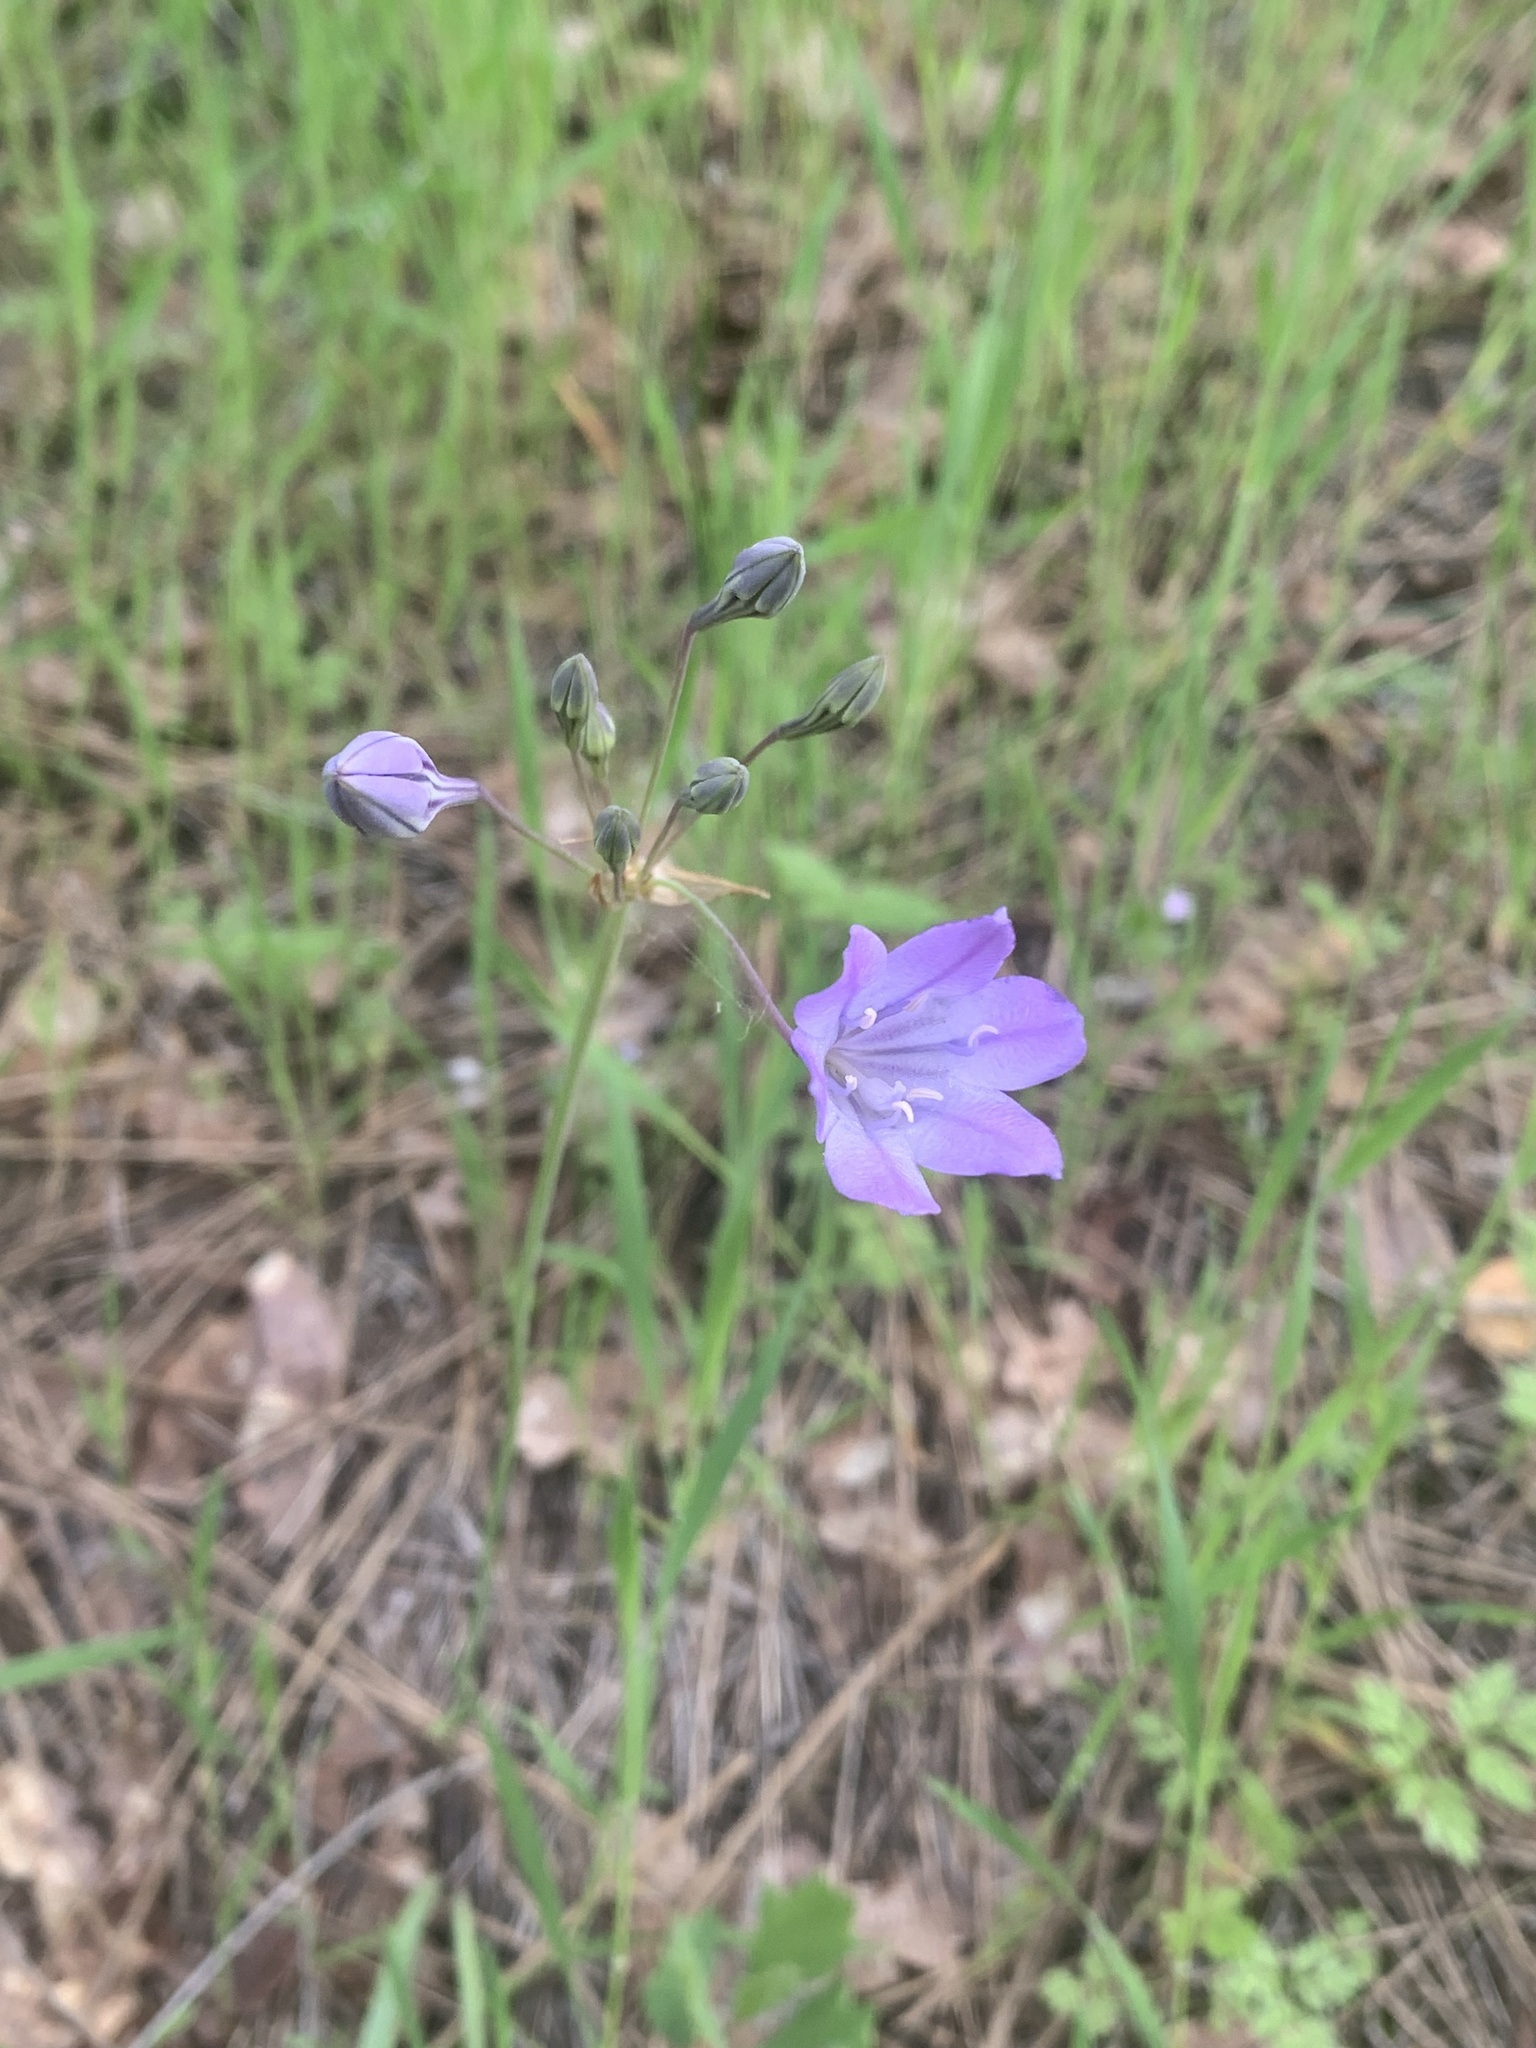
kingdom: Plantae
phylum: Tracheophyta
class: Liliopsida
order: Asparagales
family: Asparagaceae
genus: Triteleia
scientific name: Triteleia laxa
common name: Triplet-lily
